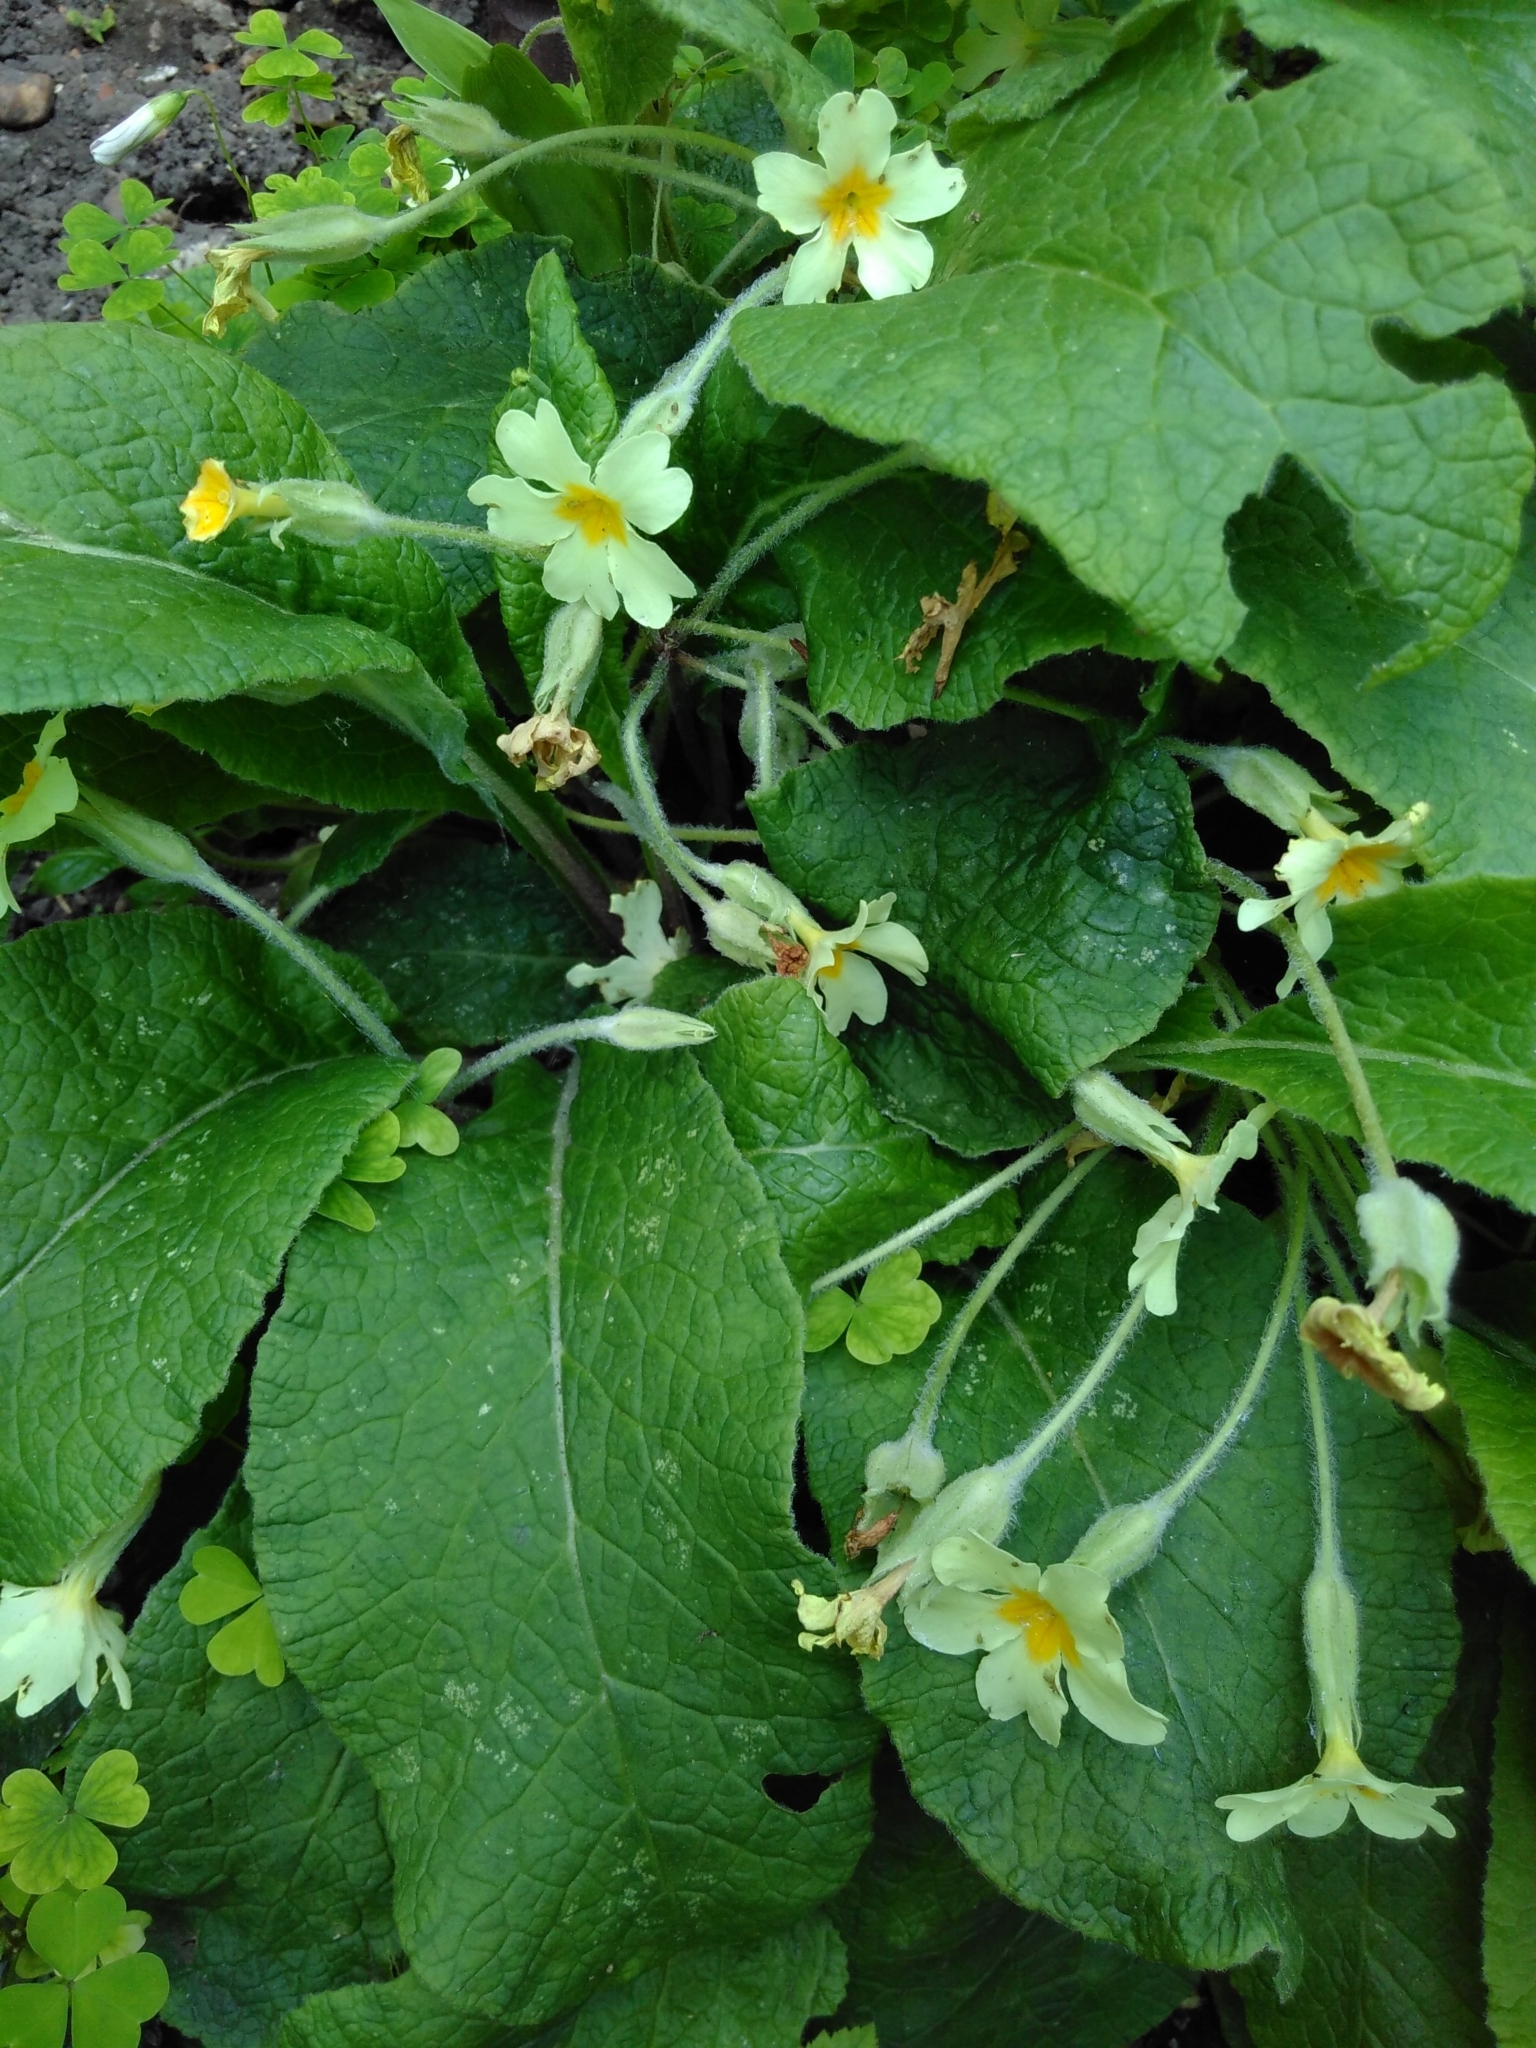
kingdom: Plantae
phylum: Tracheophyta
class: Magnoliopsida
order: Ericales
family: Primulaceae
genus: Primula
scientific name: Primula vulgaris
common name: Primrose
